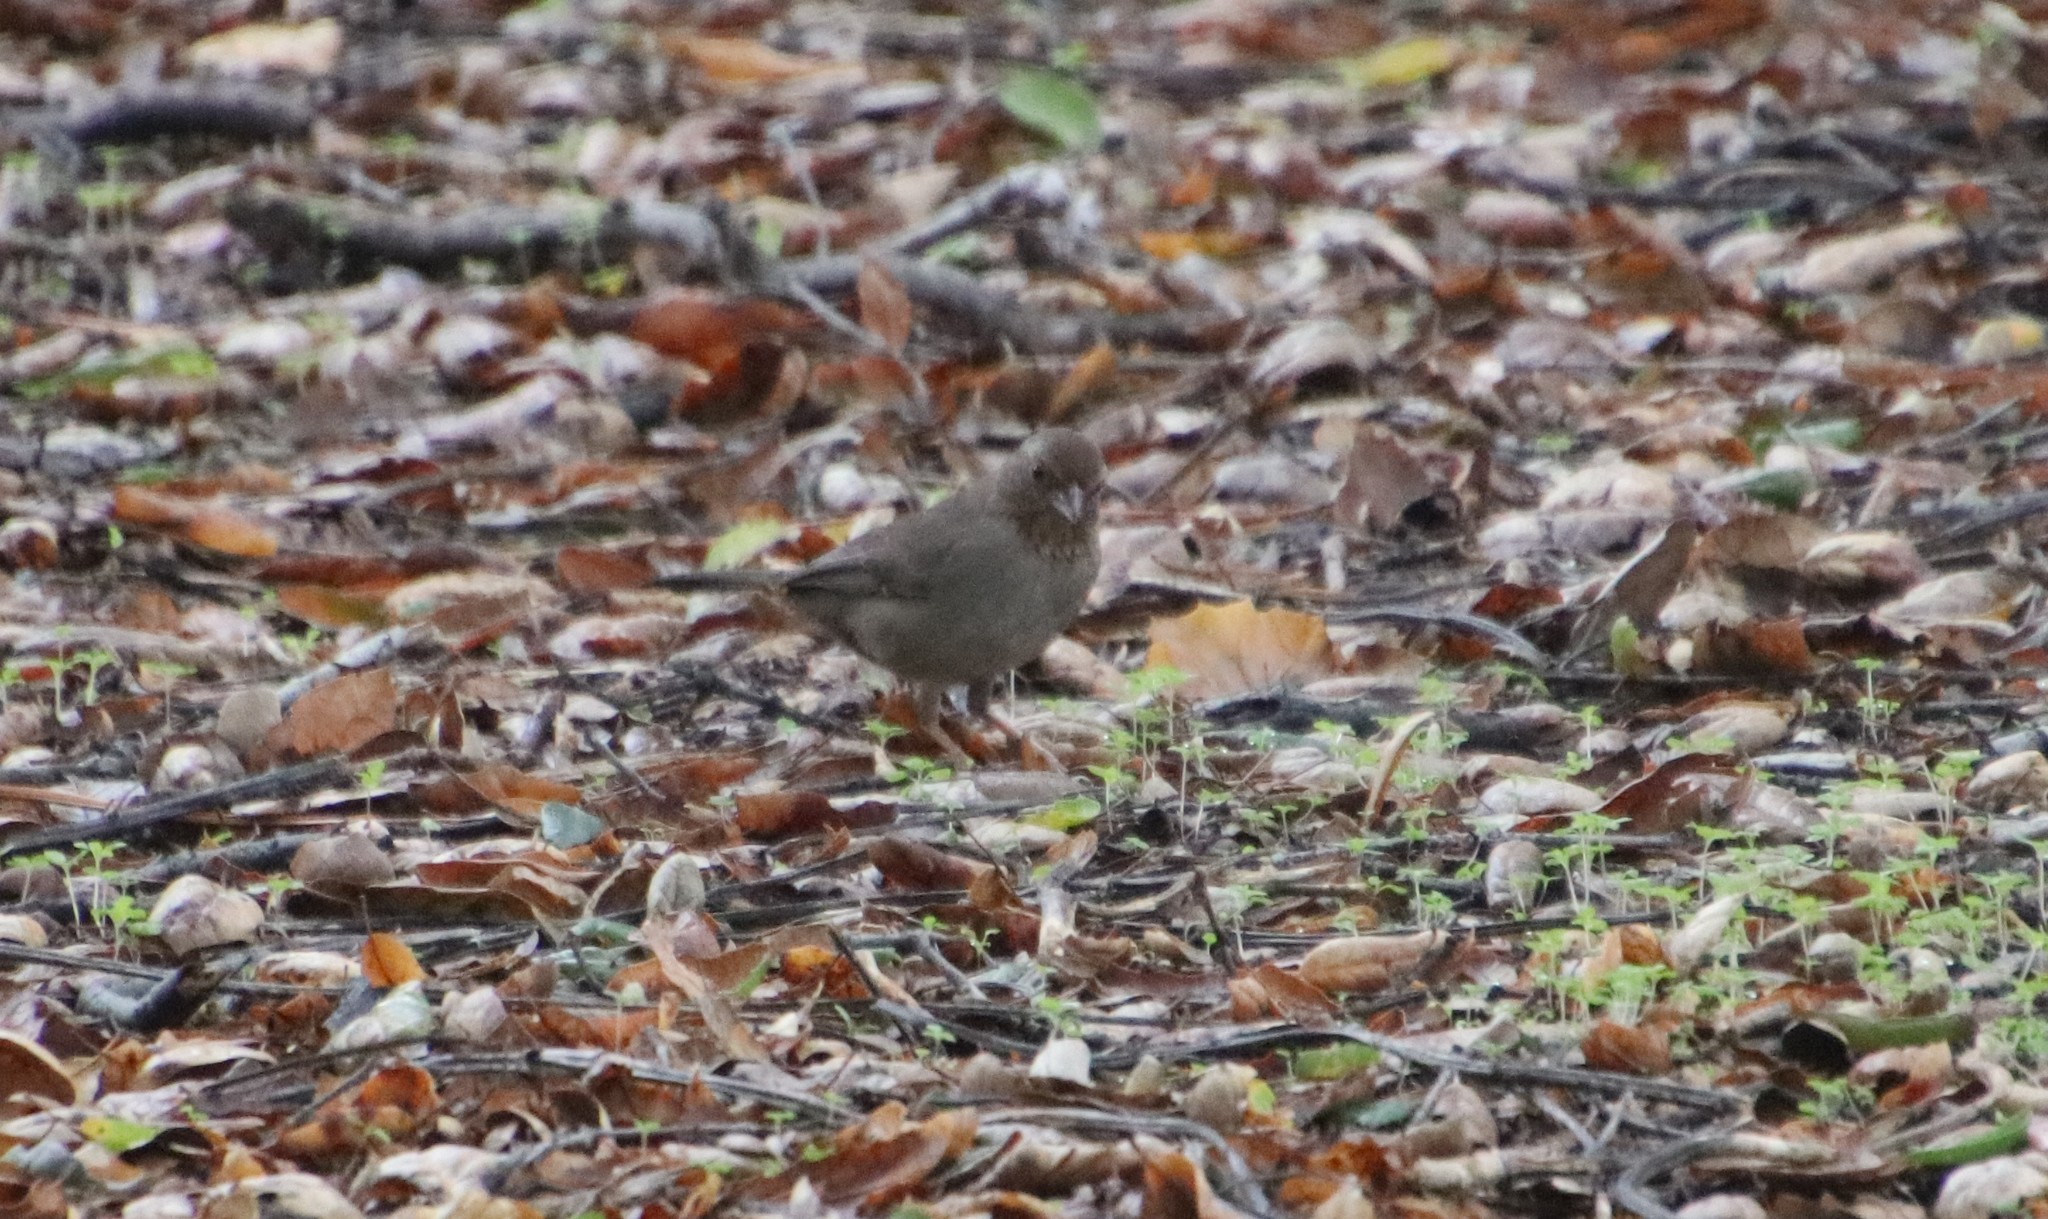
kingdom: Animalia
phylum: Chordata
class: Aves
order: Passeriformes
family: Passerellidae
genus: Melozone
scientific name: Melozone crissalis
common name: California towhee
